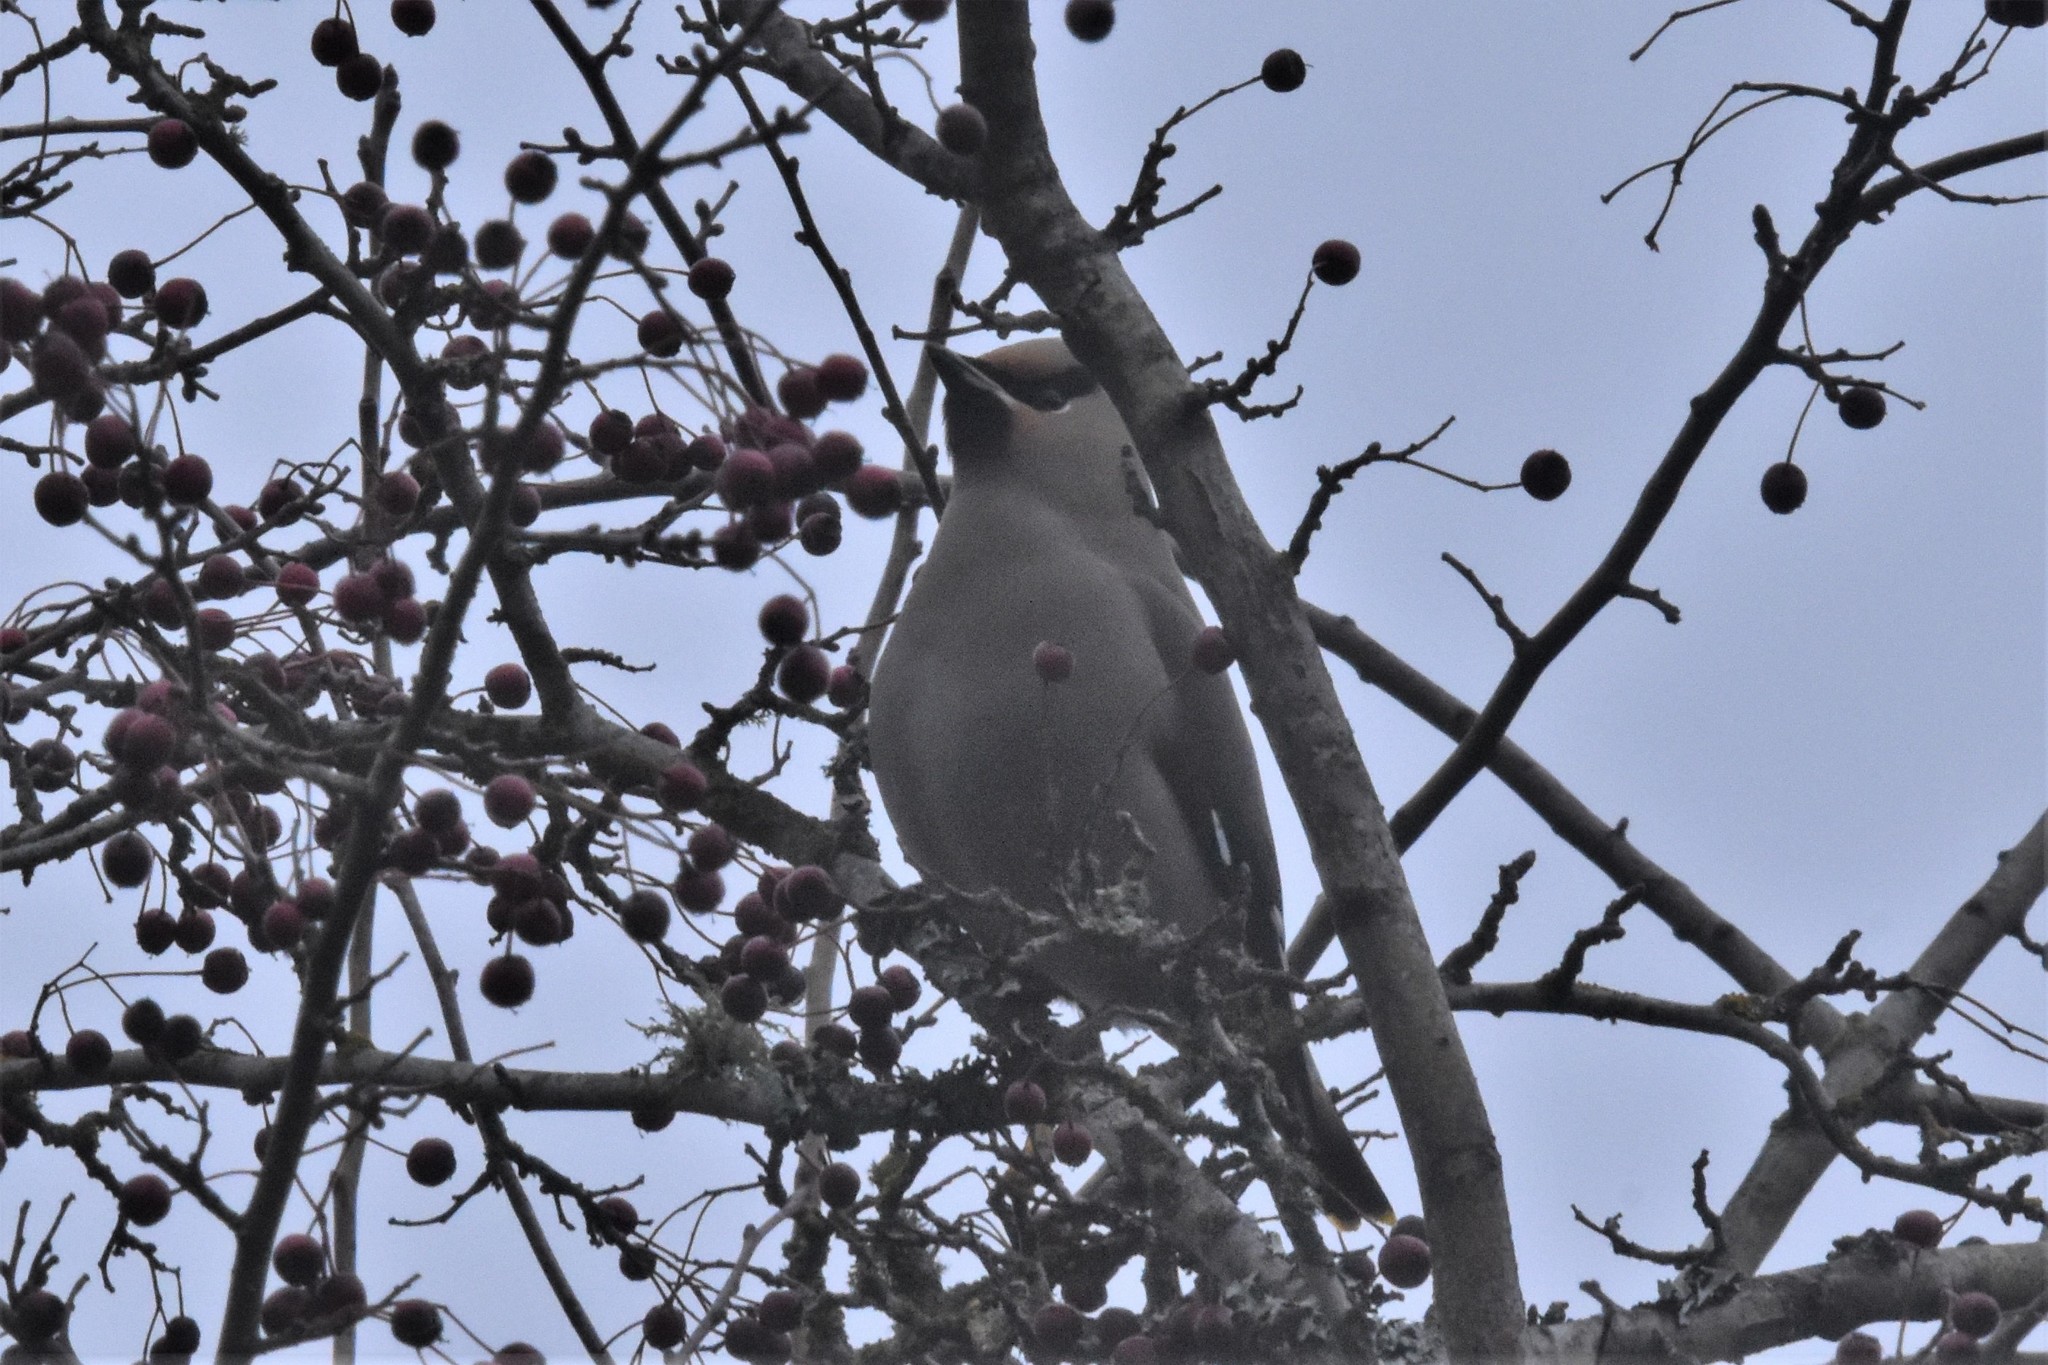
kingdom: Animalia
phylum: Chordata
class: Aves
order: Passeriformes
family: Bombycillidae
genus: Bombycilla
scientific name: Bombycilla garrulus
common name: Bohemian waxwing
